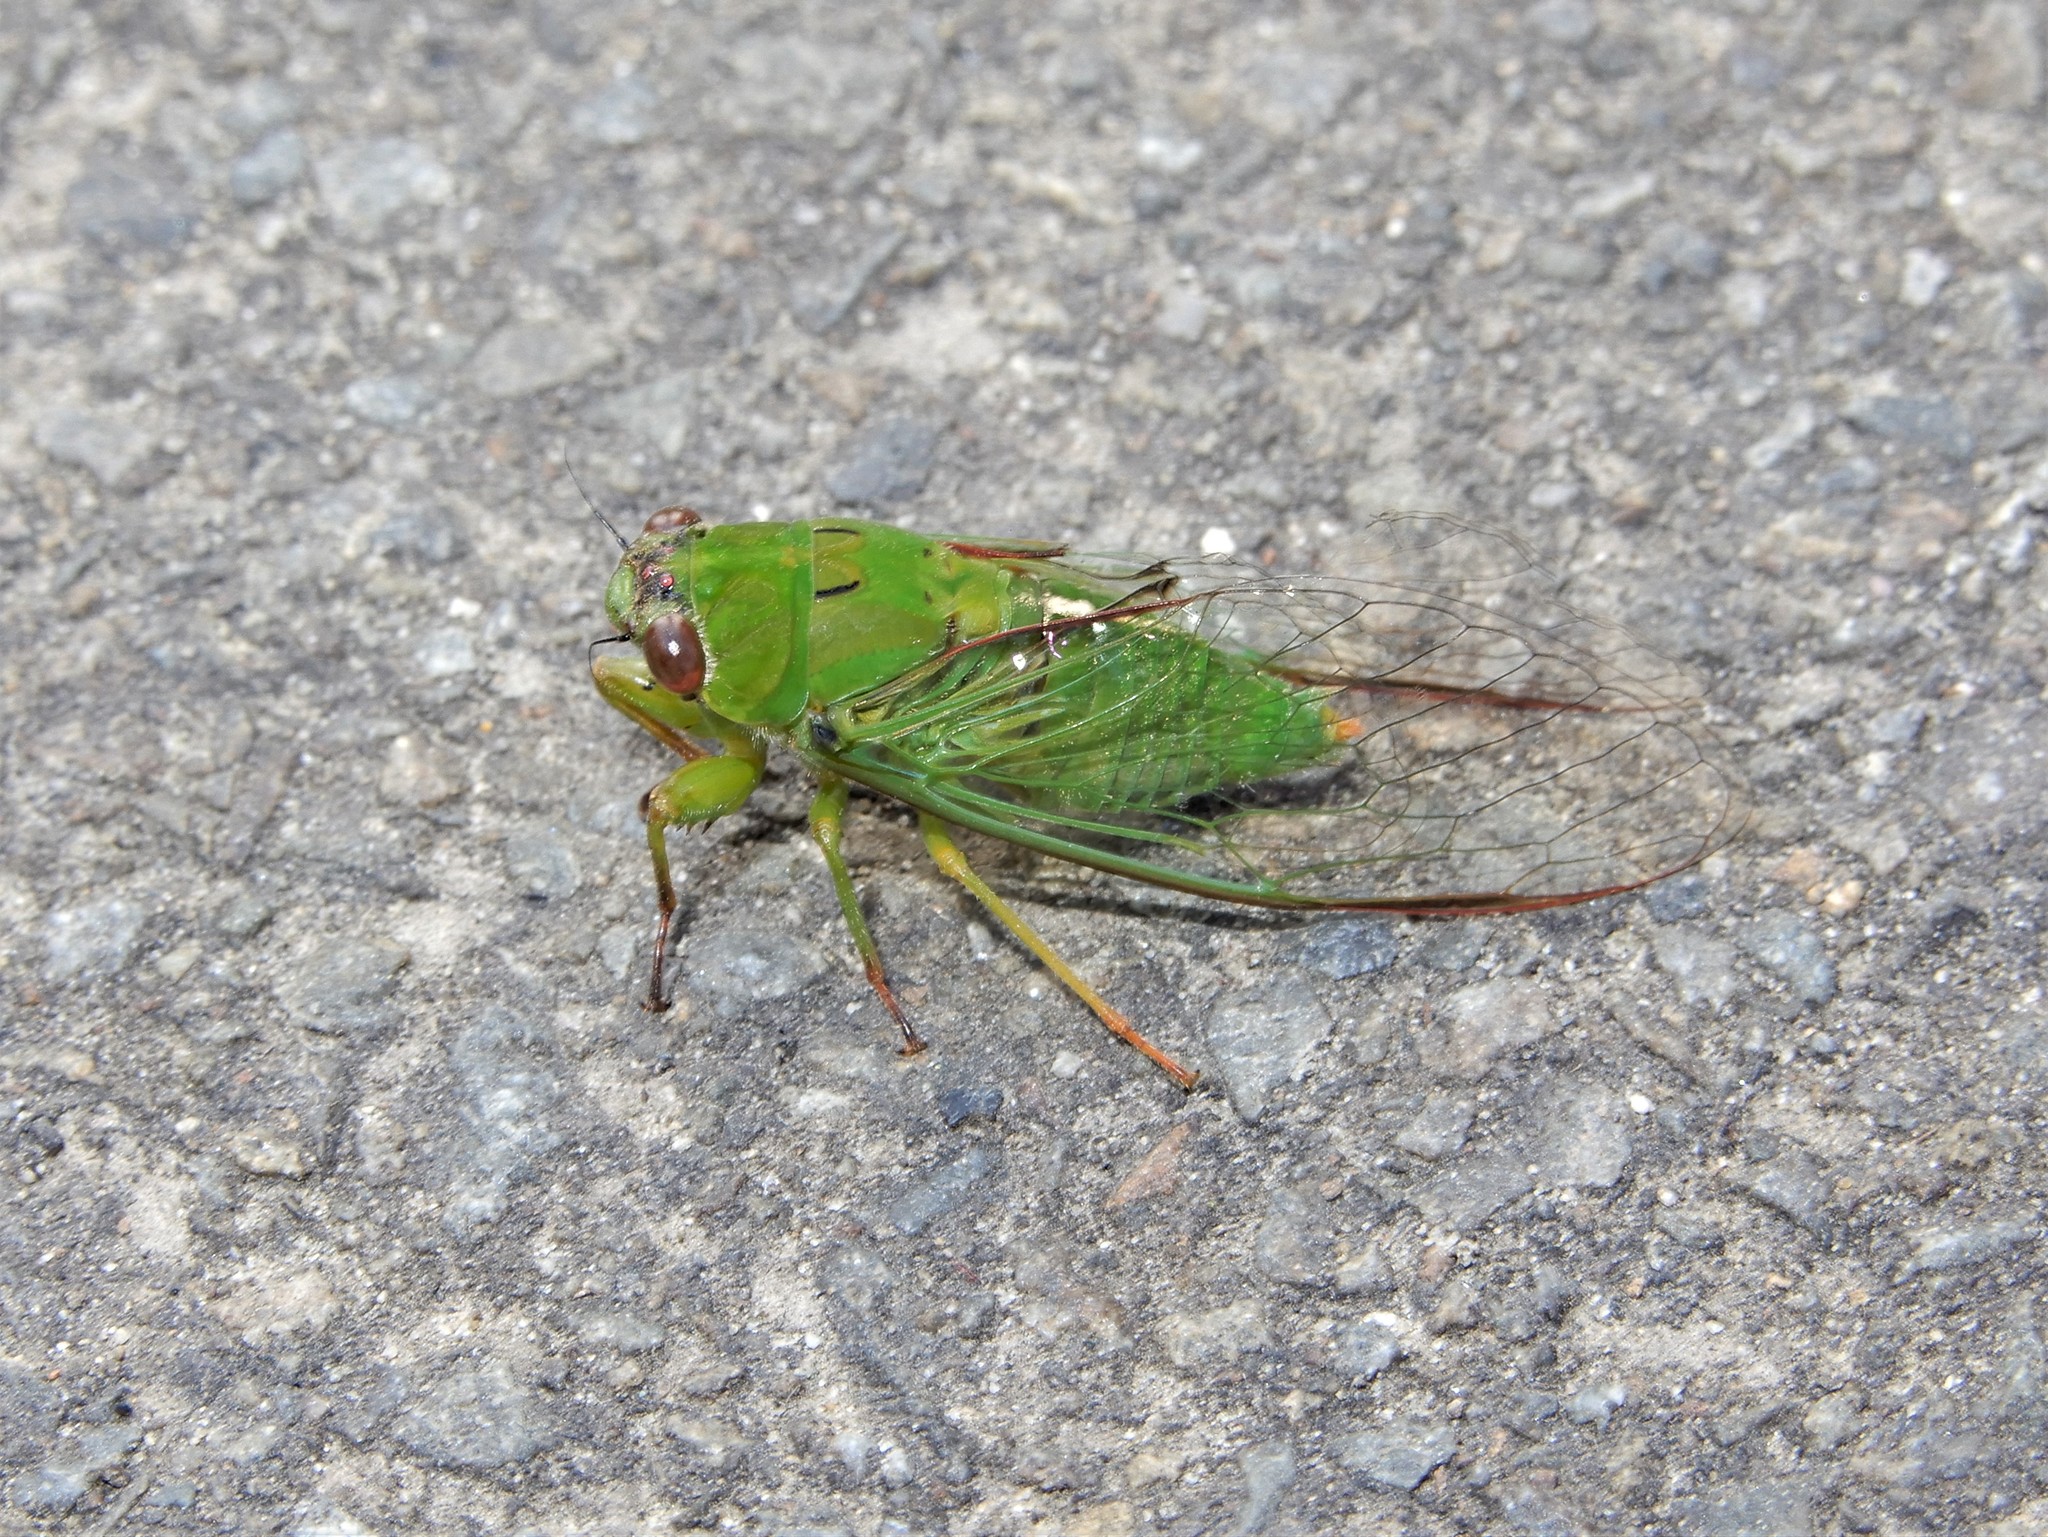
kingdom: Animalia
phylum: Arthropoda
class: Insecta
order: Hemiptera
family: Cicadidae
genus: Kikihia
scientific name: Kikihia ochrina
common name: April green cicada
